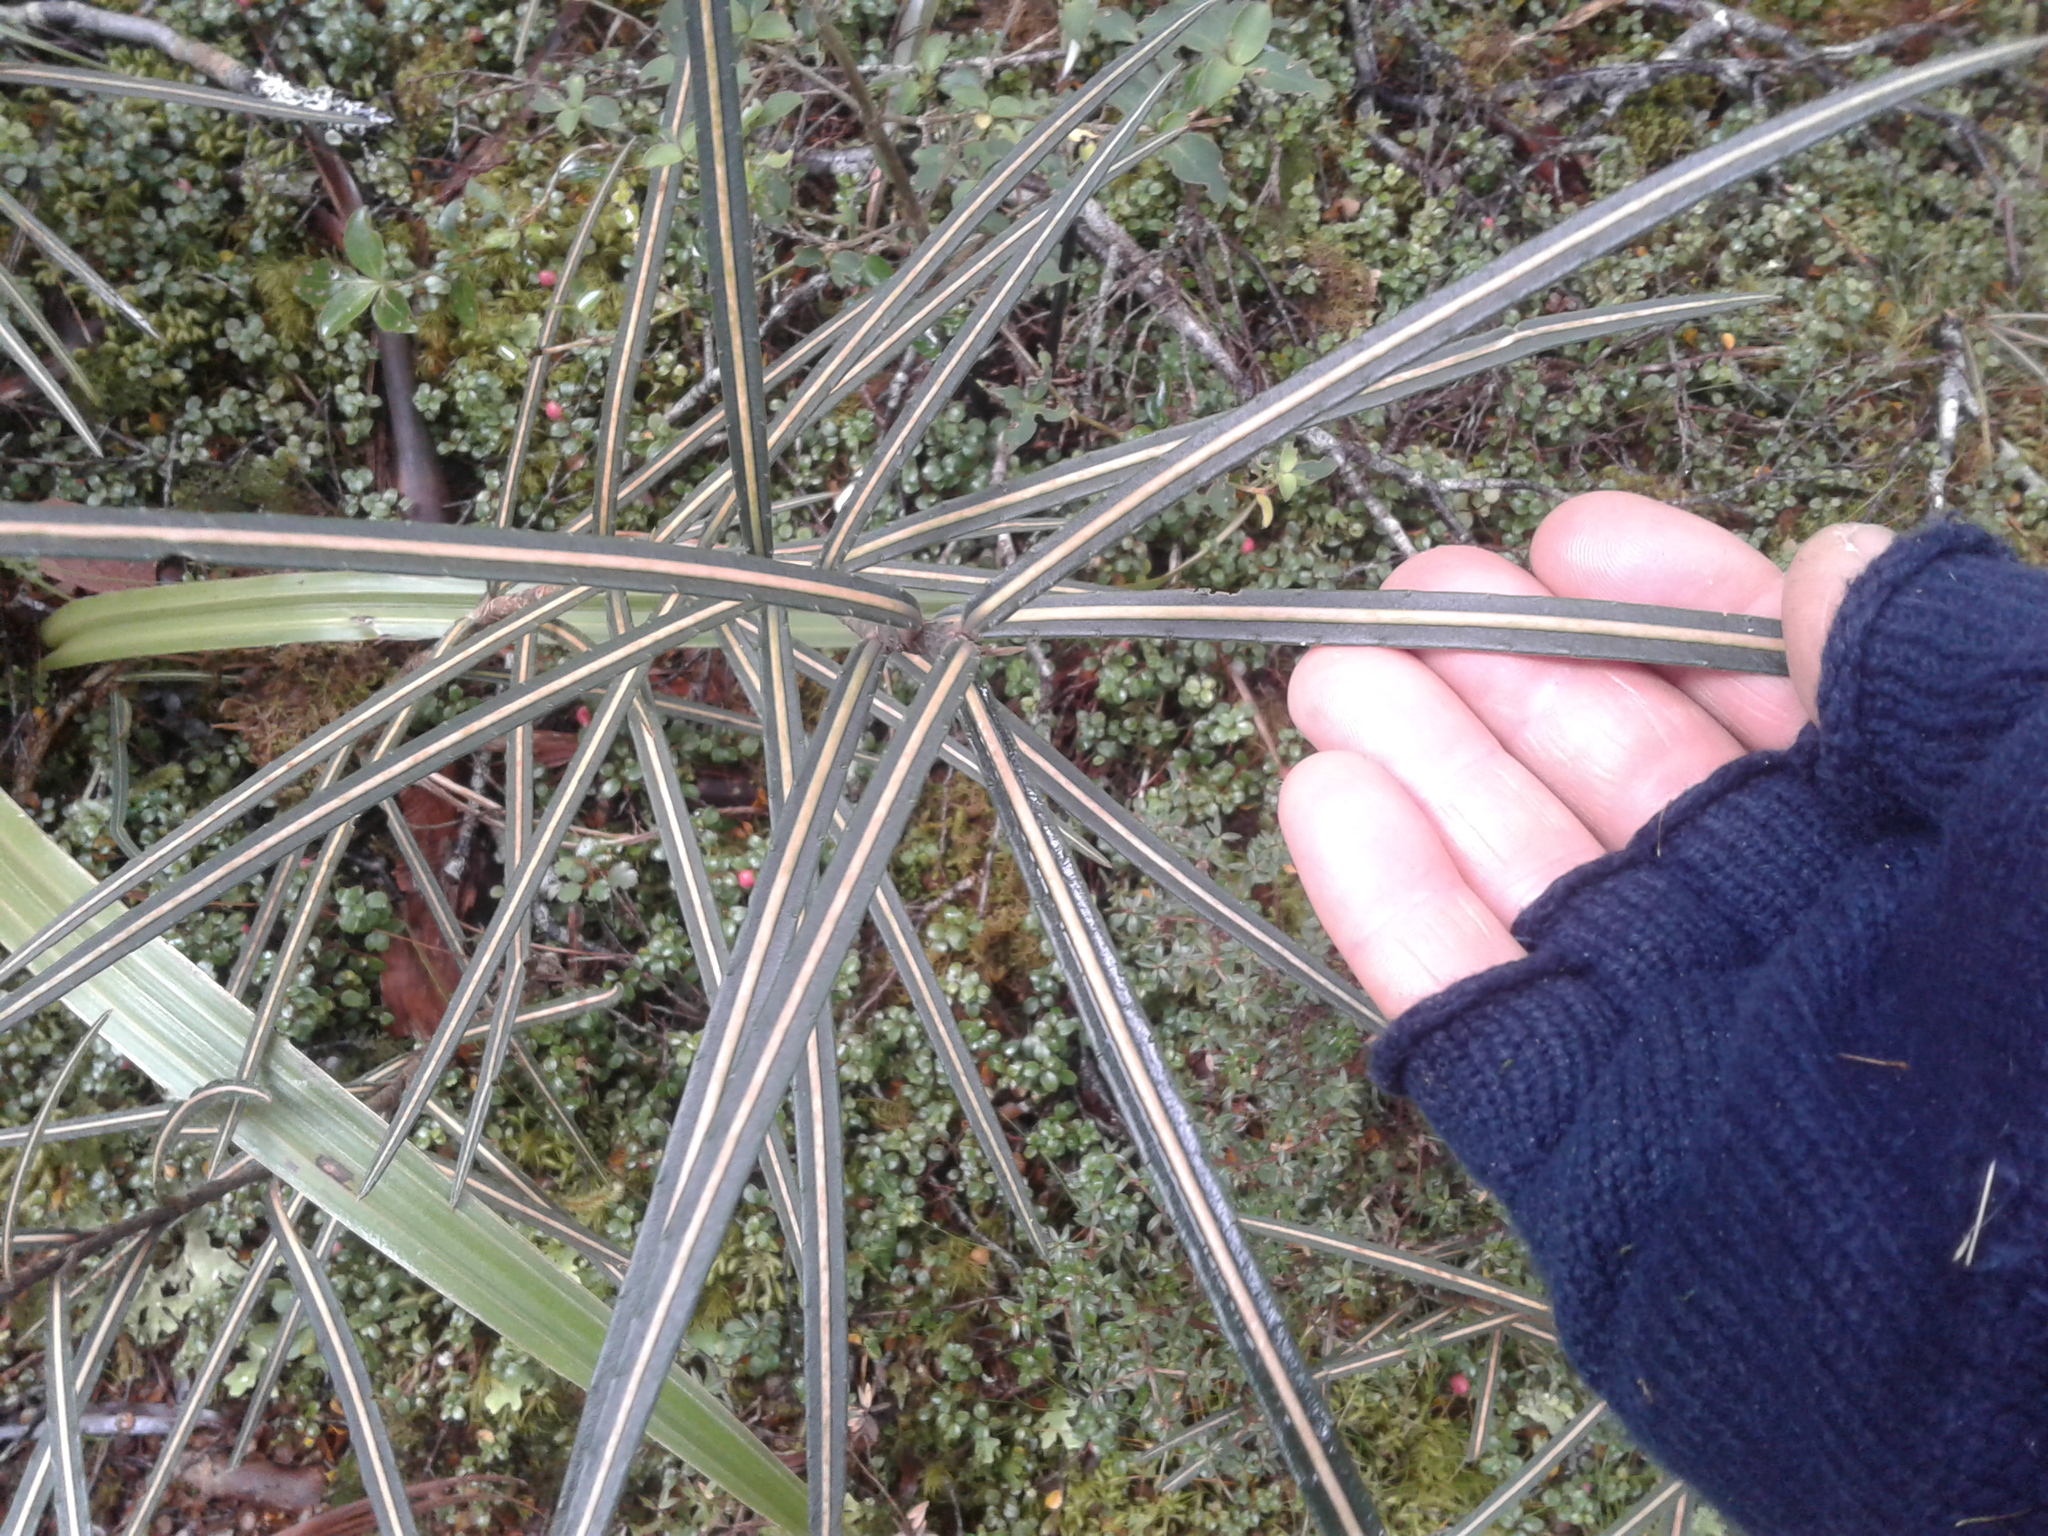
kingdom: Plantae
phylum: Tracheophyta
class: Magnoliopsida
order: Apiales
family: Araliaceae
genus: Pseudopanax
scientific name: Pseudopanax linearis
